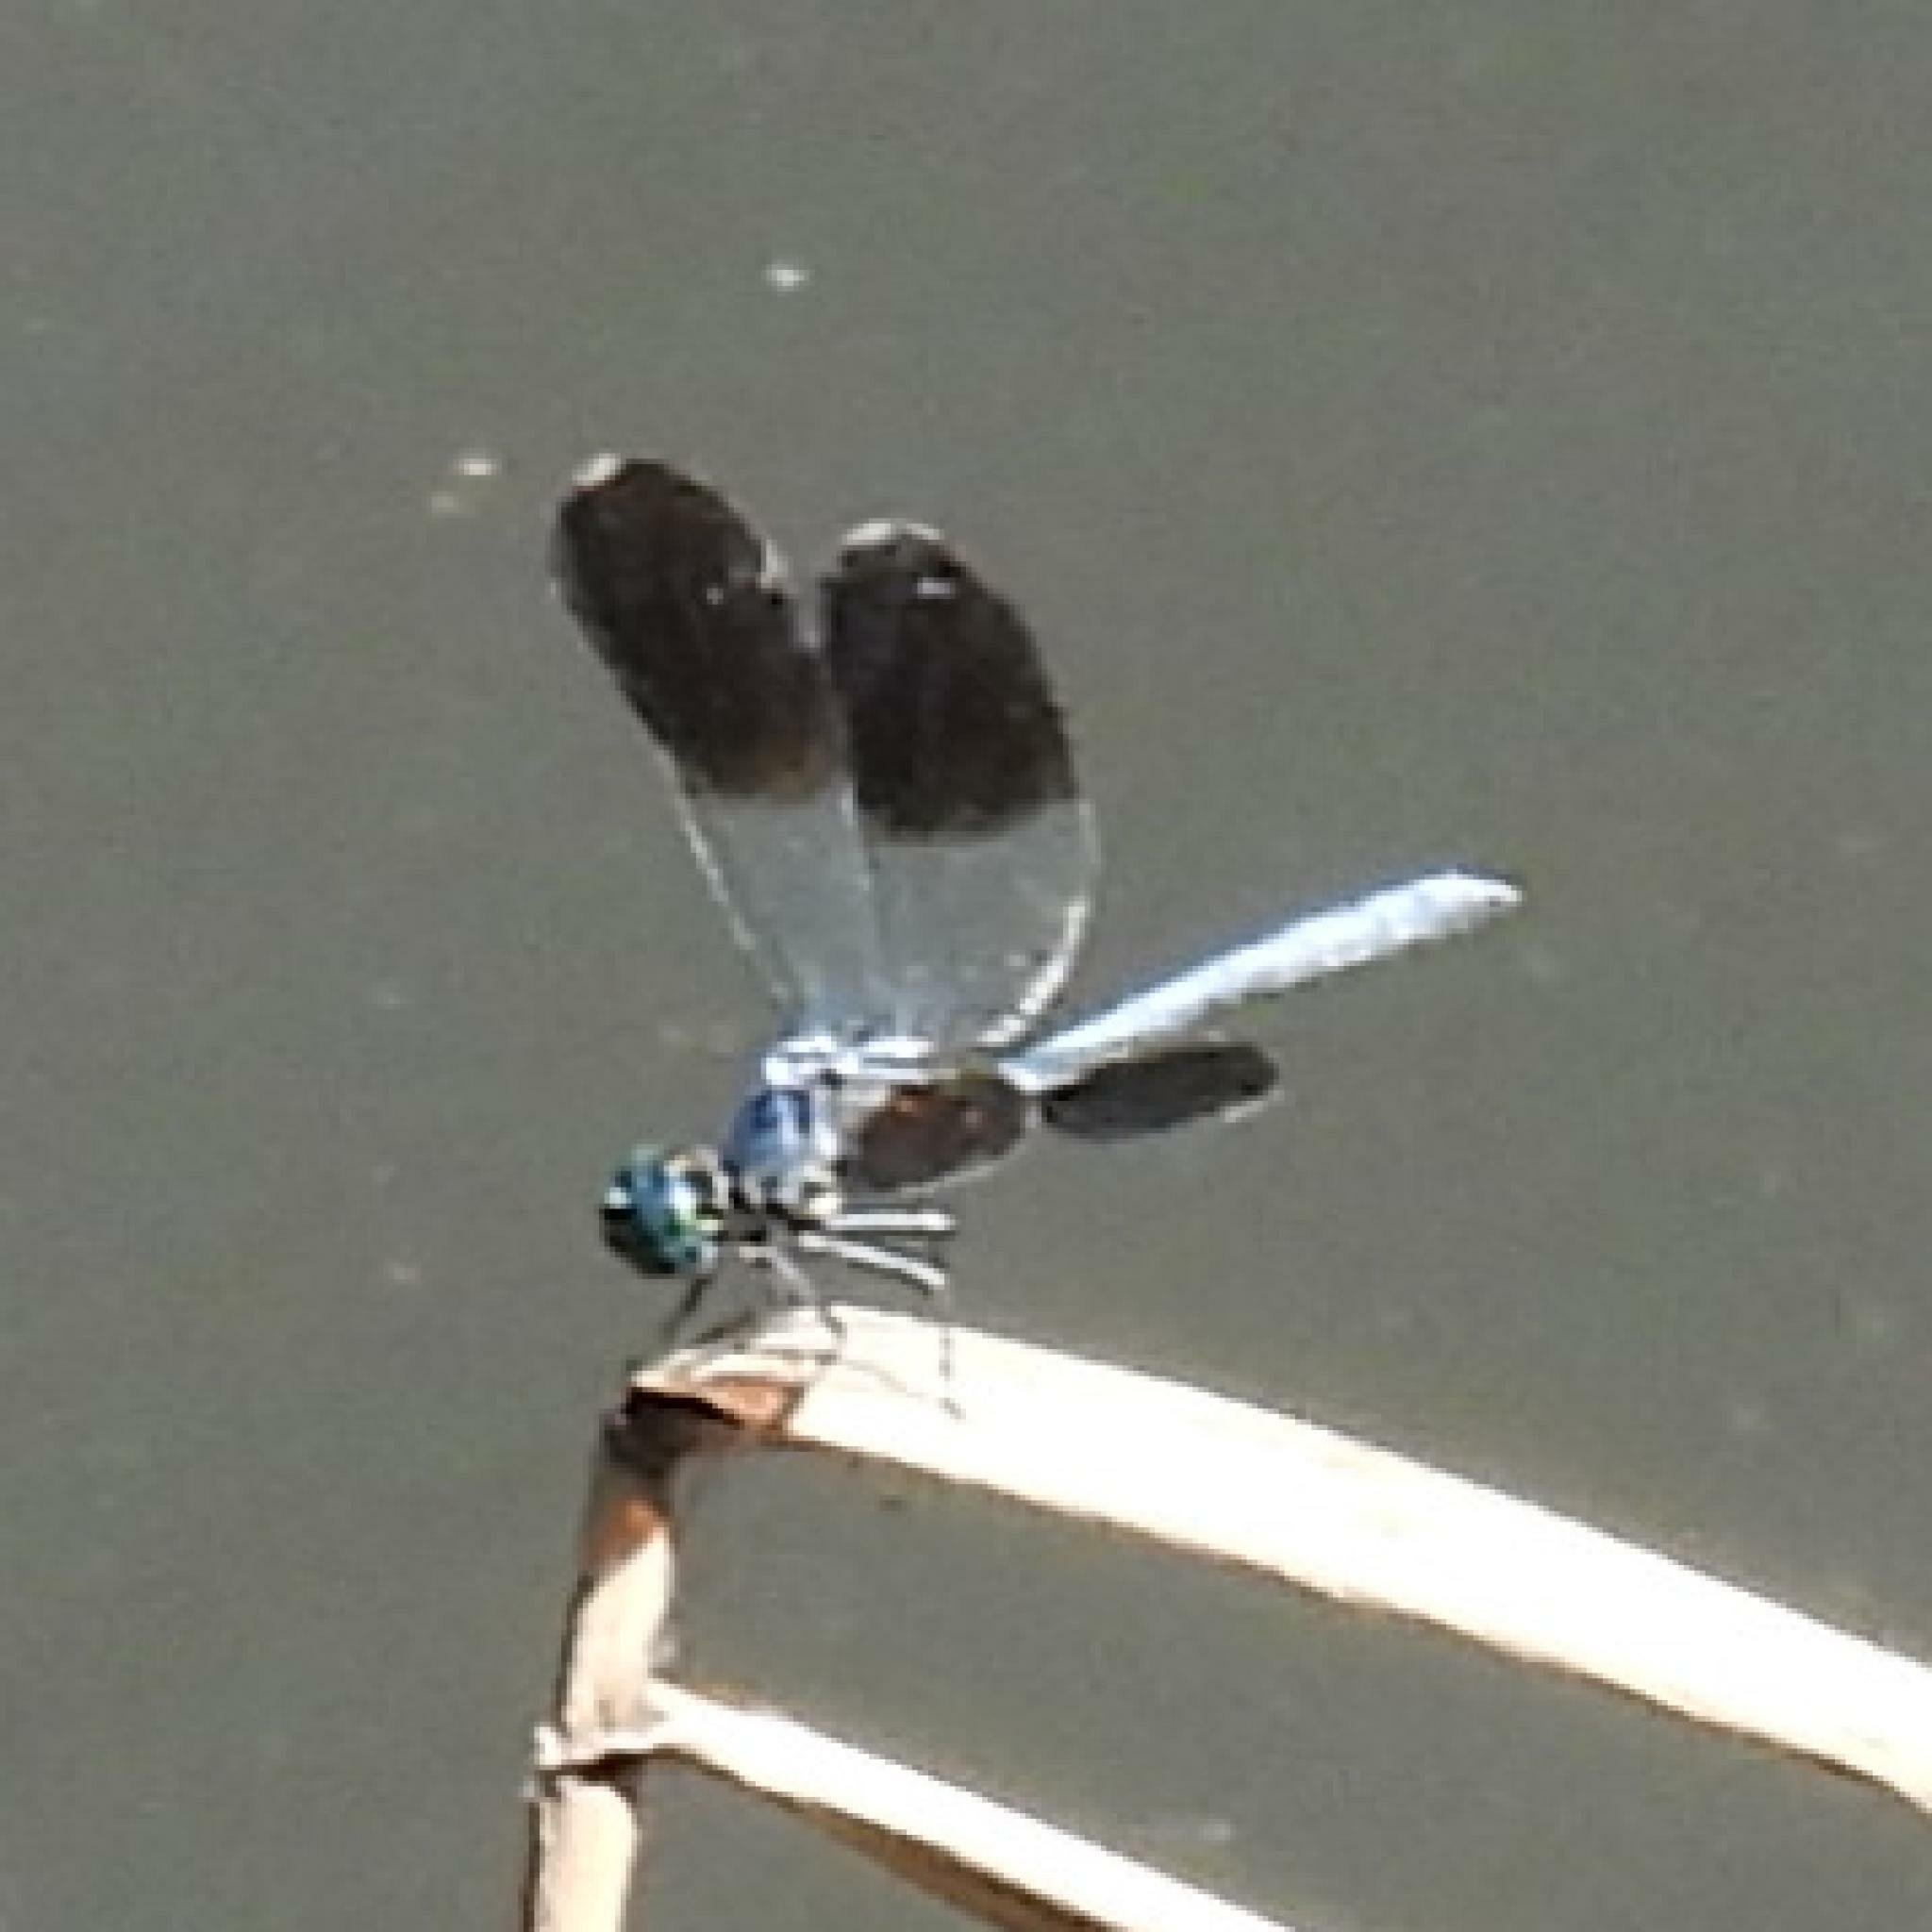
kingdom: Animalia
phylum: Arthropoda
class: Insecta
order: Odonata
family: Libellulidae
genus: Tetrathemis
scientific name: Tetrathemis polleni
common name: Black-splashed elf
